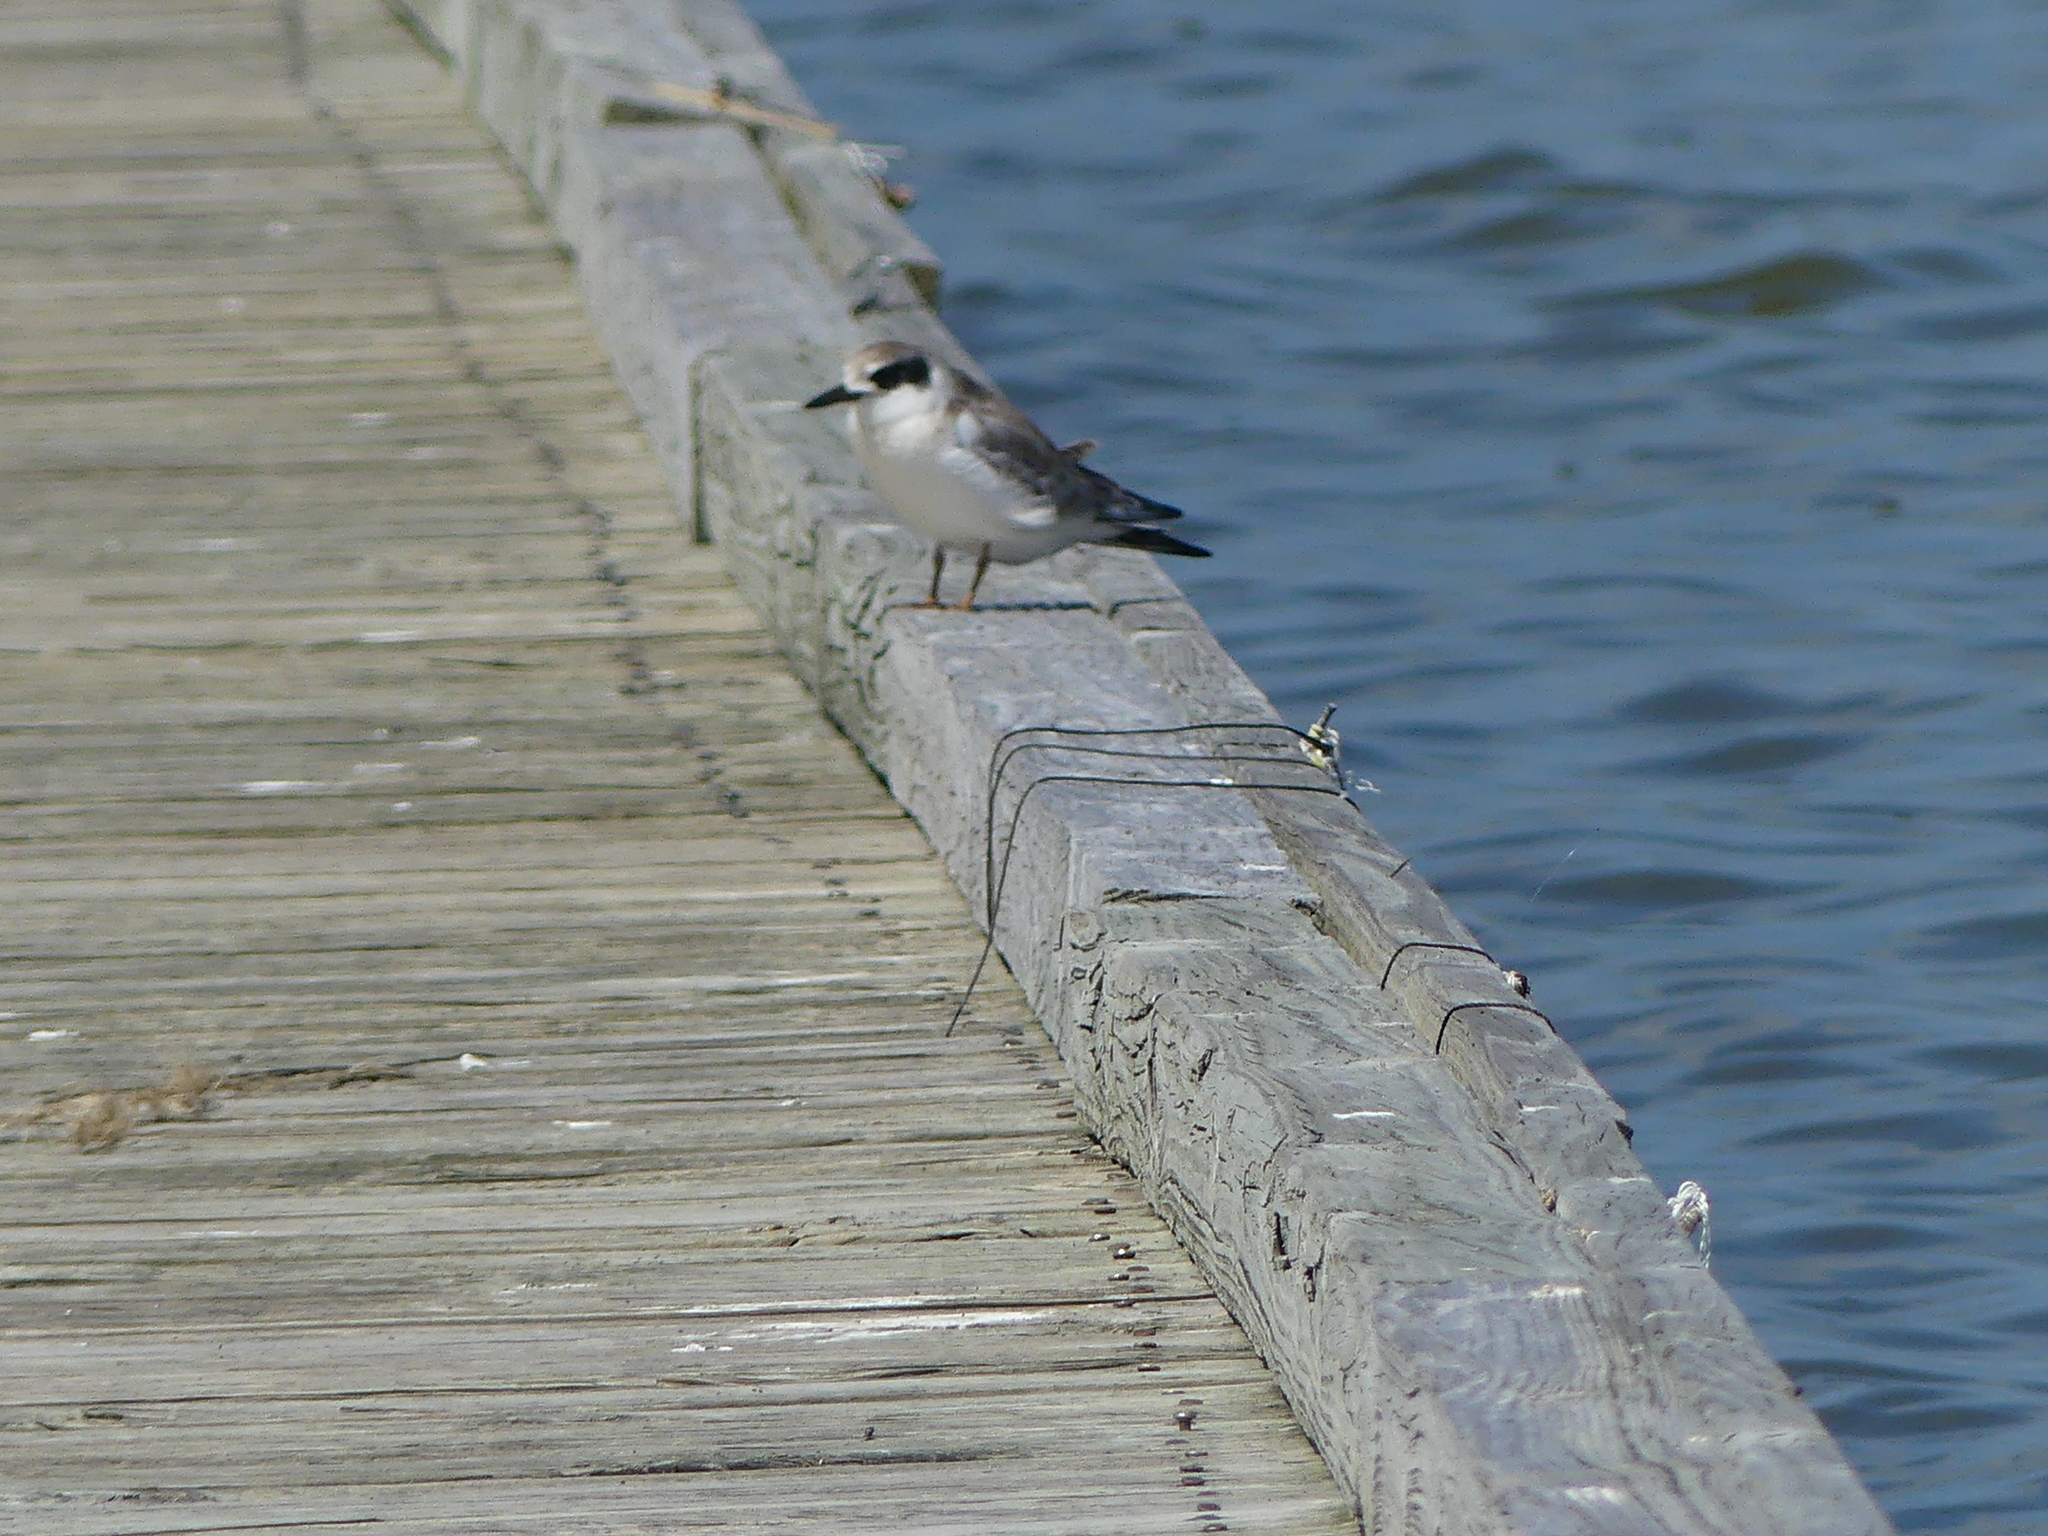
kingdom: Animalia
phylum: Chordata
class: Aves
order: Charadriiformes
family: Laridae
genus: Sterna
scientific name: Sterna forsteri
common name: Forster's tern
